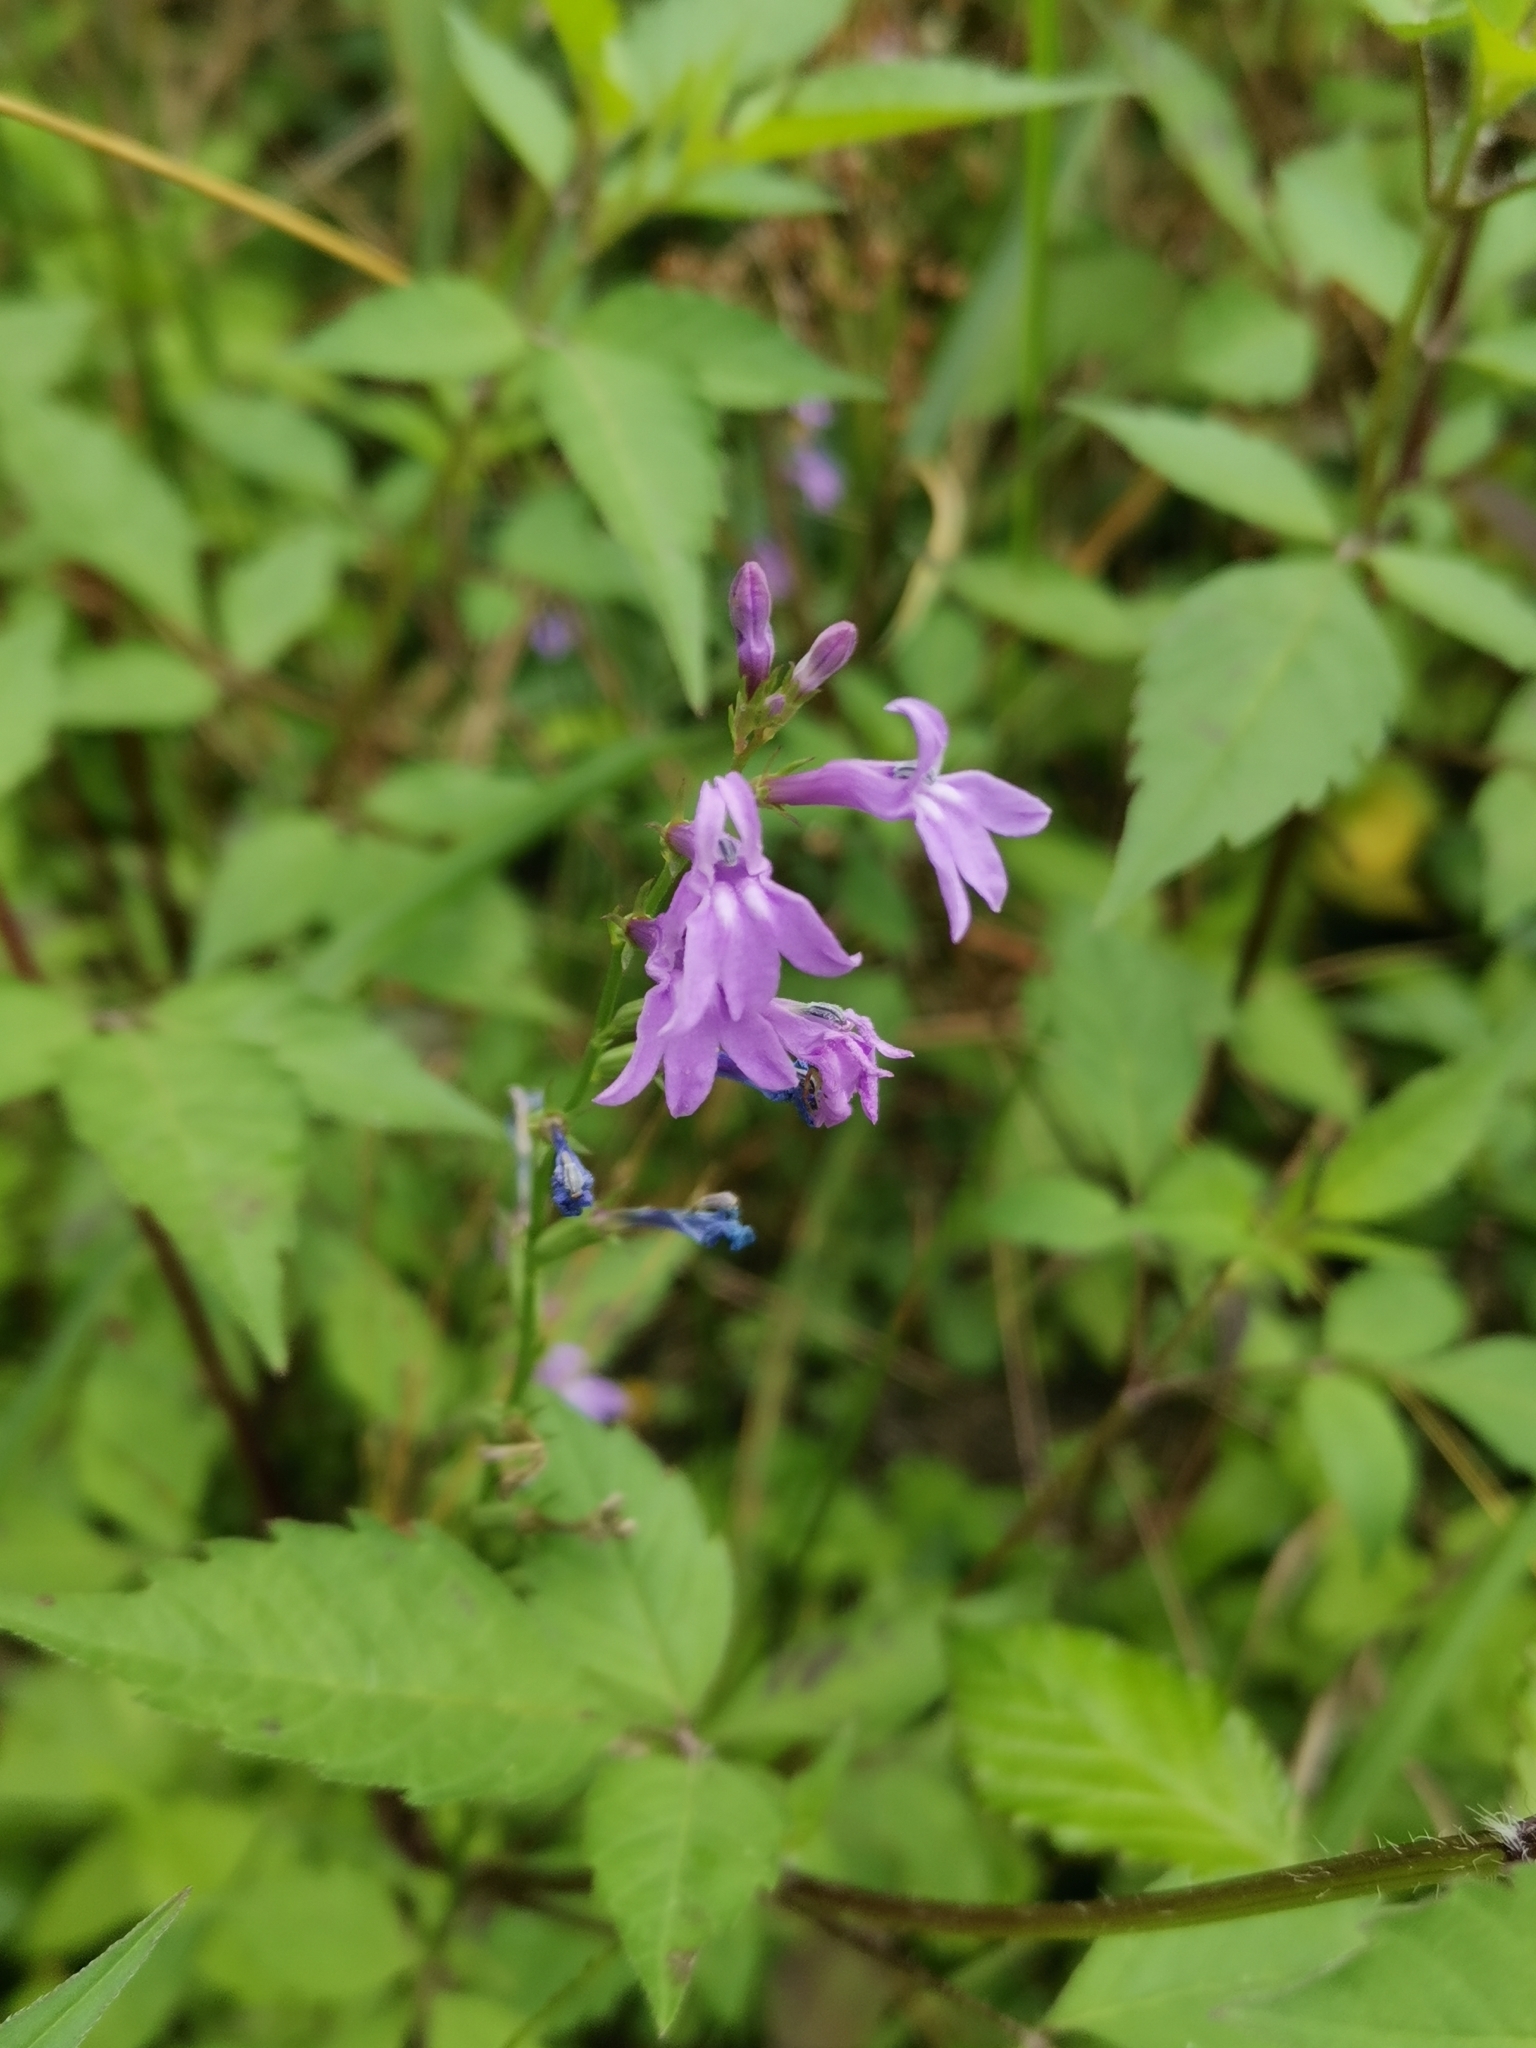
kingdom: Plantae
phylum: Tracheophyta
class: Magnoliopsida
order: Asterales
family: Campanulaceae
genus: Lobelia
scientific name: Lobelia urens
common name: Heath lobelia
